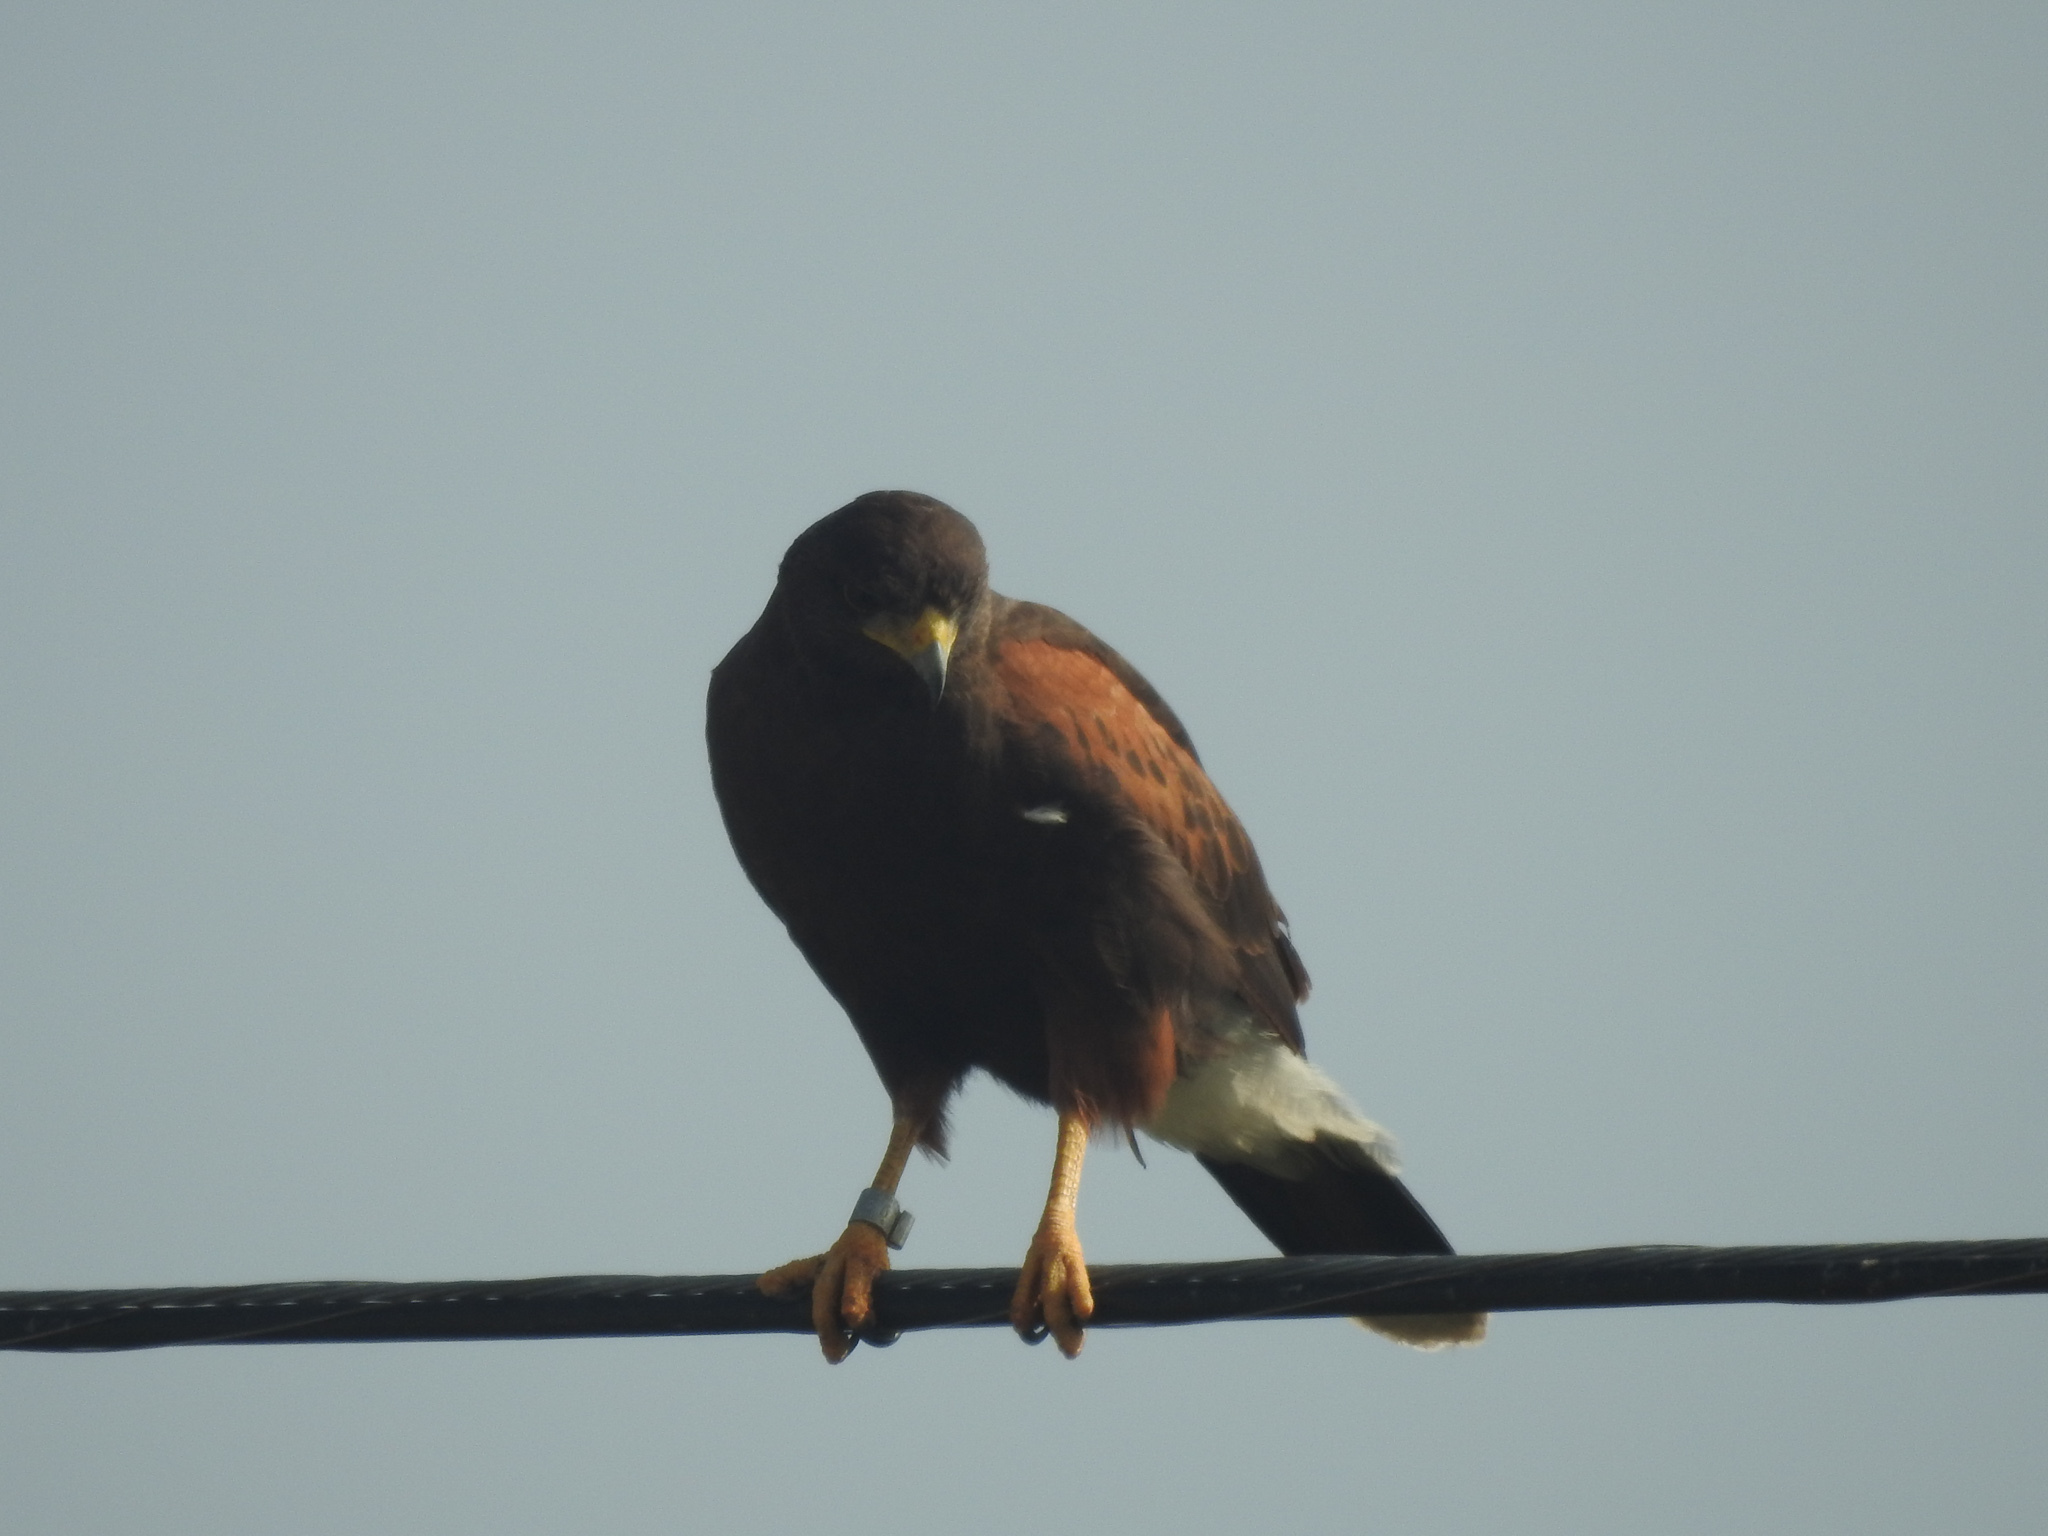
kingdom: Animalia
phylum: Chordata
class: Aves
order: Accipitriformes
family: Accipitridae
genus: Parabuteo
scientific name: Parabuteo unicinctus
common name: Harris's hawk
